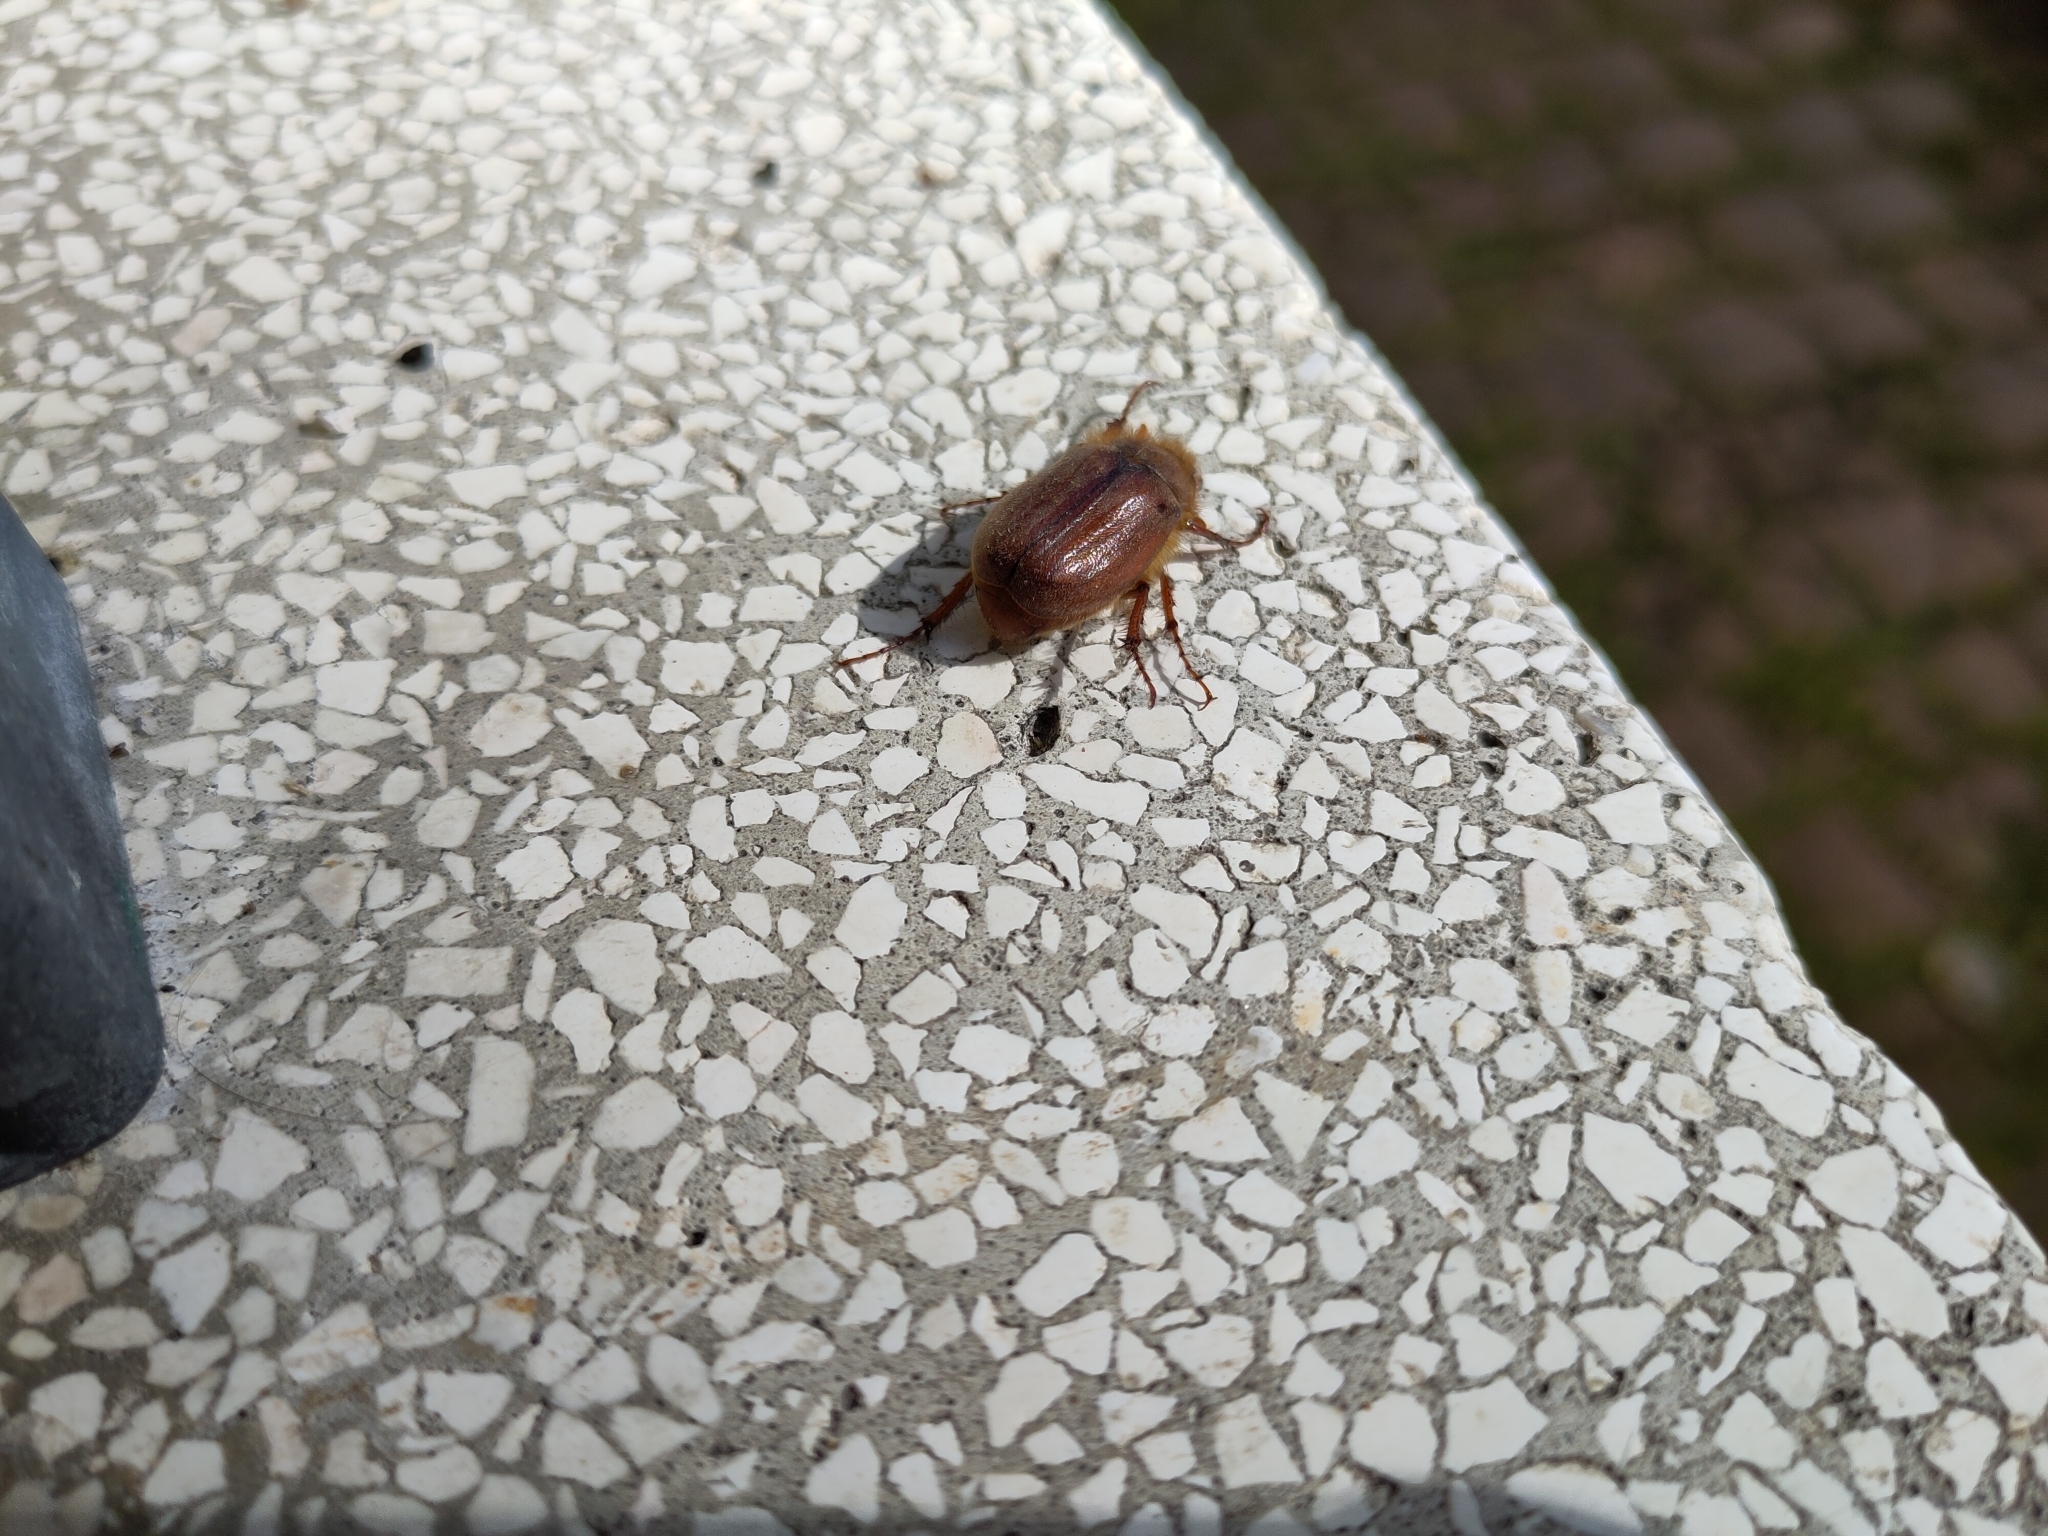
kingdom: Animalia
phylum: Arthropoda
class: Insecta
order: Coleoptera
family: Scarabaeidae
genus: Holochelus
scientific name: Holochelus fraxinicola
